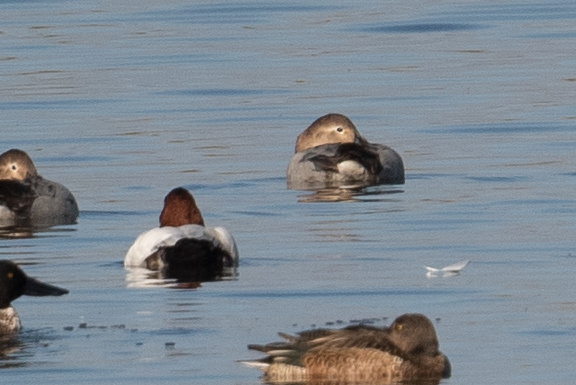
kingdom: Animalia
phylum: Chordata
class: Aves
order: Anseriformes
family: Anatidae
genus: Aythya
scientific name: Aythya valisineria
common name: Canvasback
